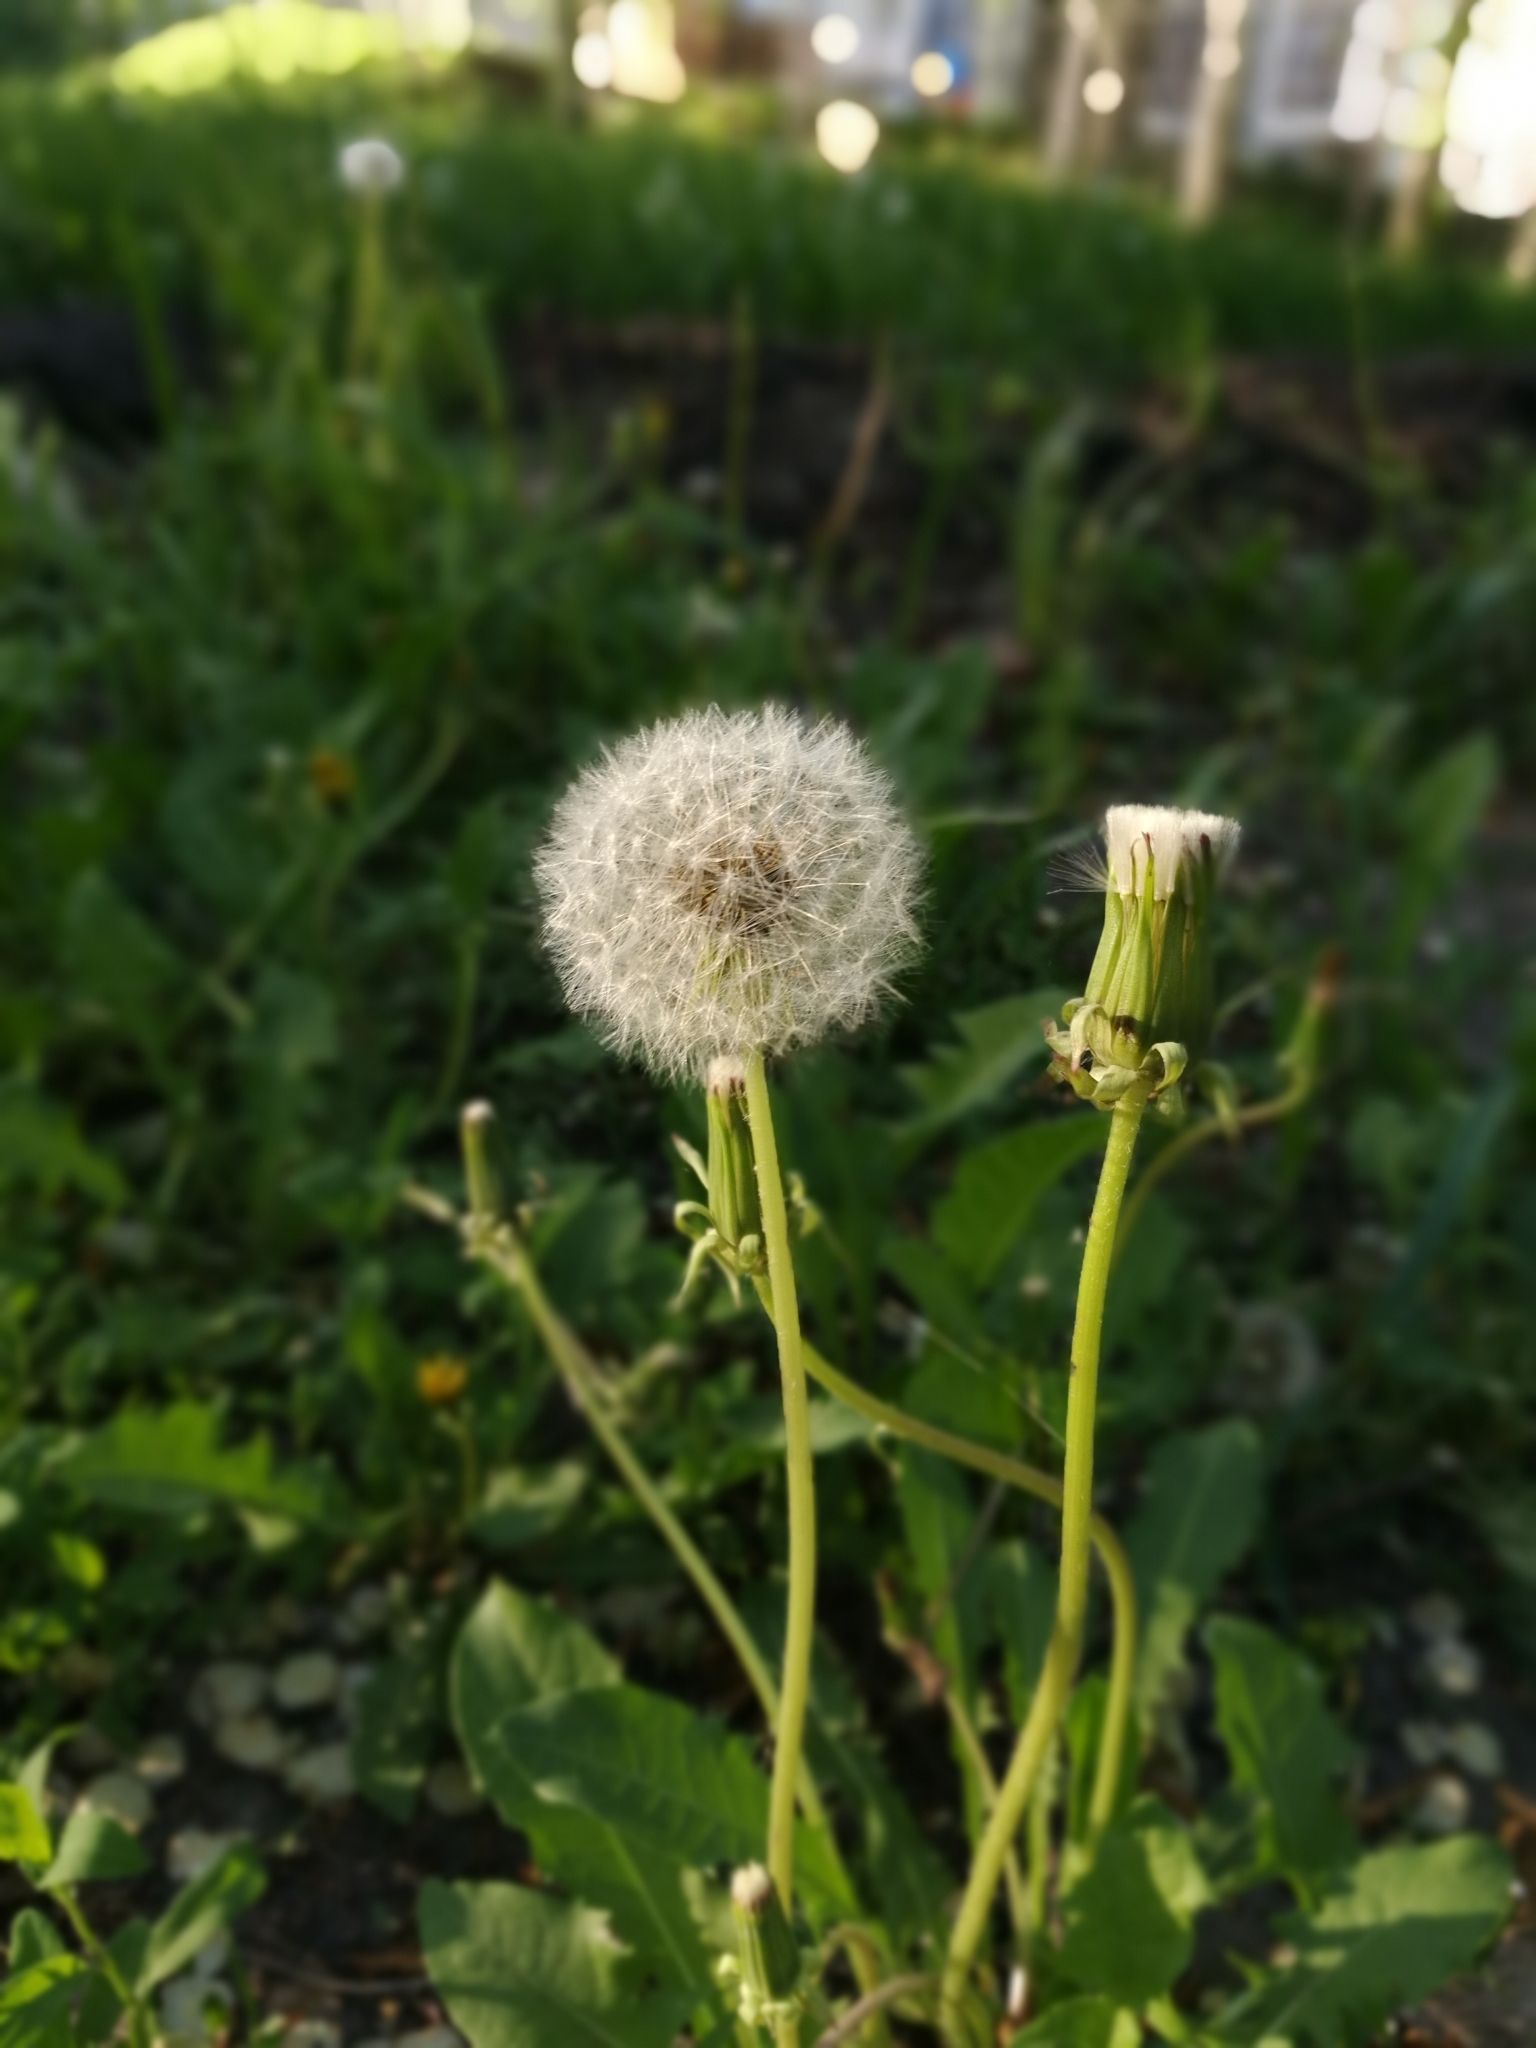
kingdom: Plantae
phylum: Tracheophyta
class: Magnoliopsida
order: Asterales
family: Asteraceae
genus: Taraxacum
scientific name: Taraxacum officinale
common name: Common dandelion
